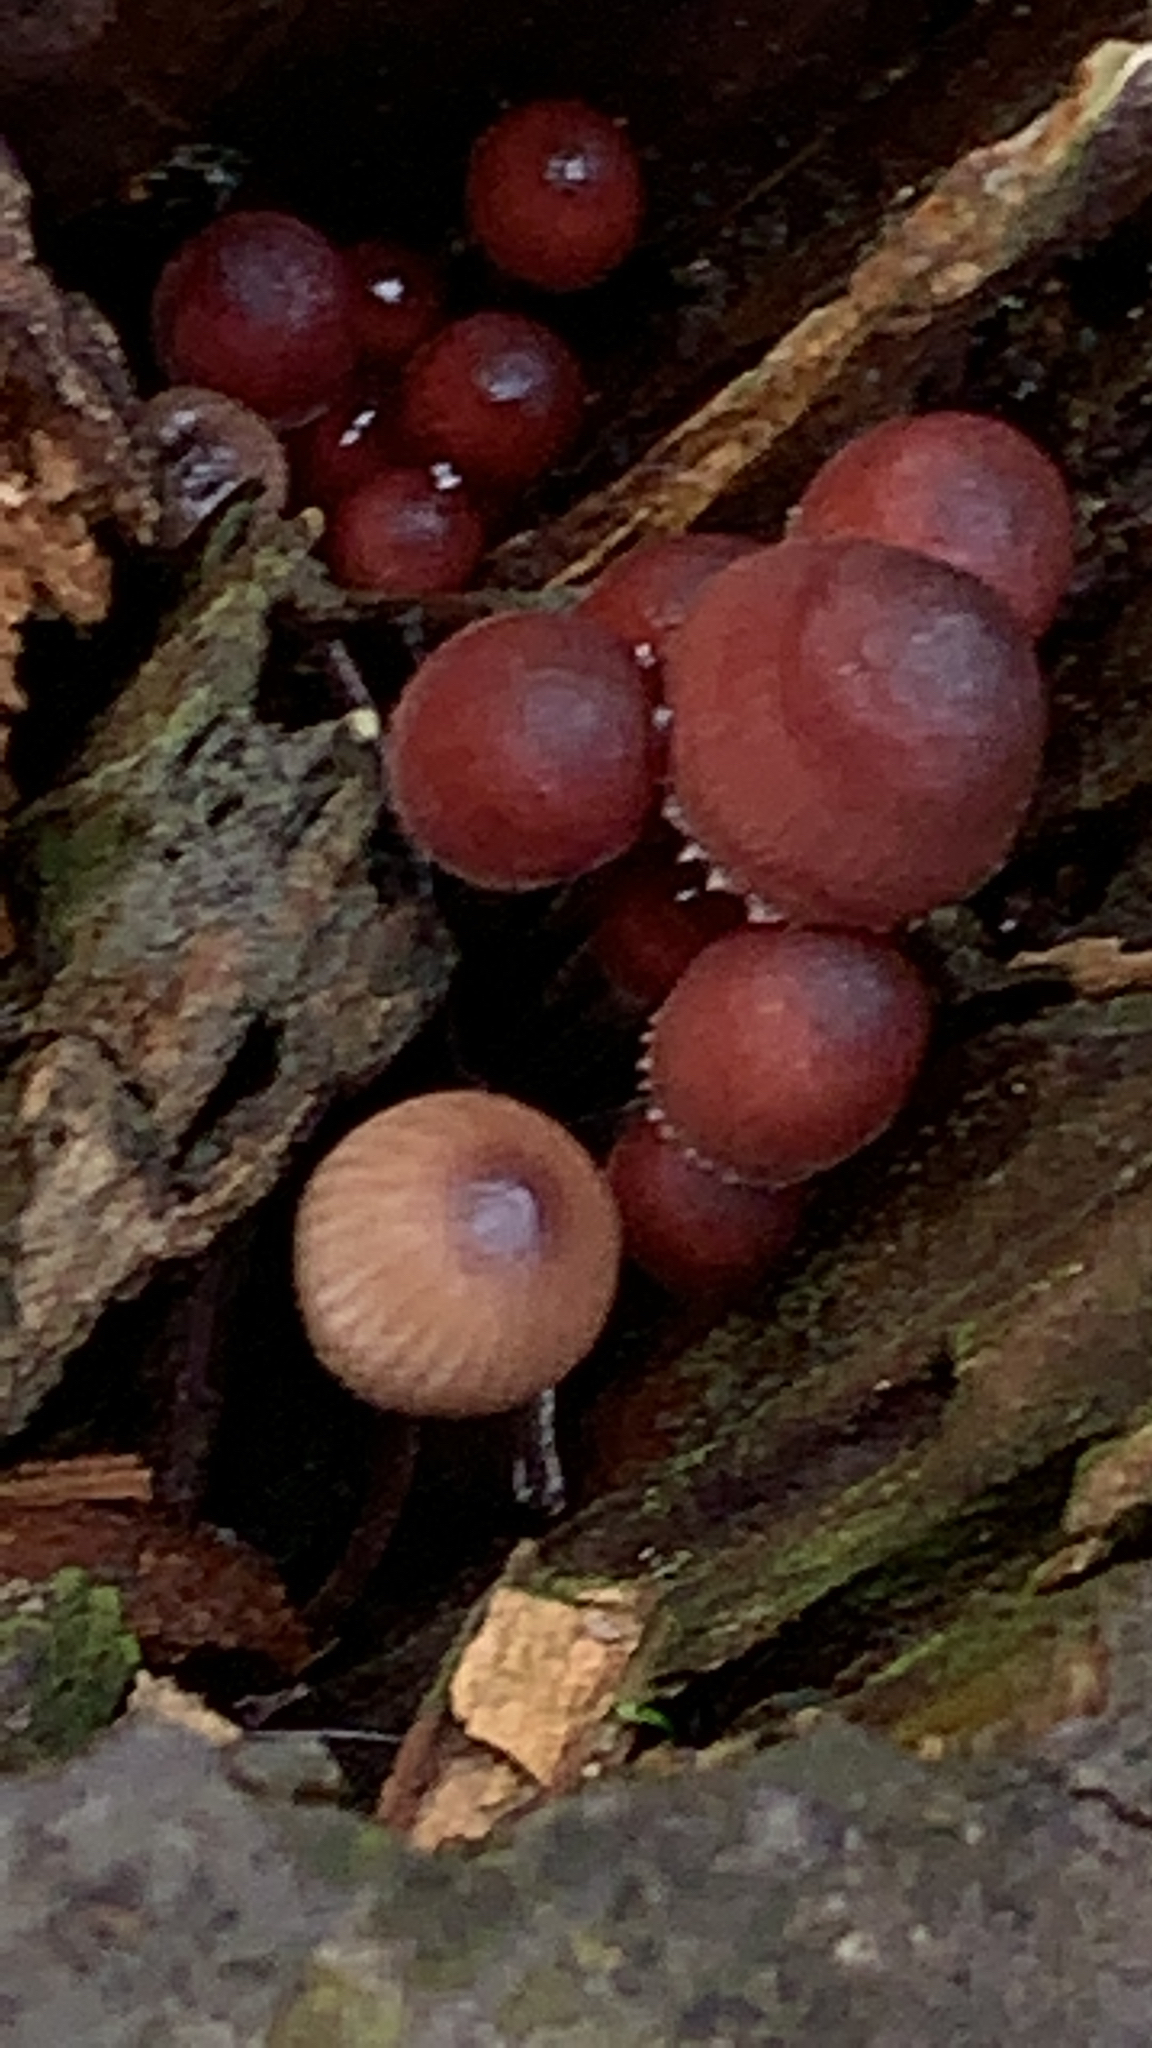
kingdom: Fungi
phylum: Basidiomycota
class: Agaricomycetes
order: Agaricales
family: Mycenaceae
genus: Mycena
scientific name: Mycena haematopus
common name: Burgundydrop bonnet
